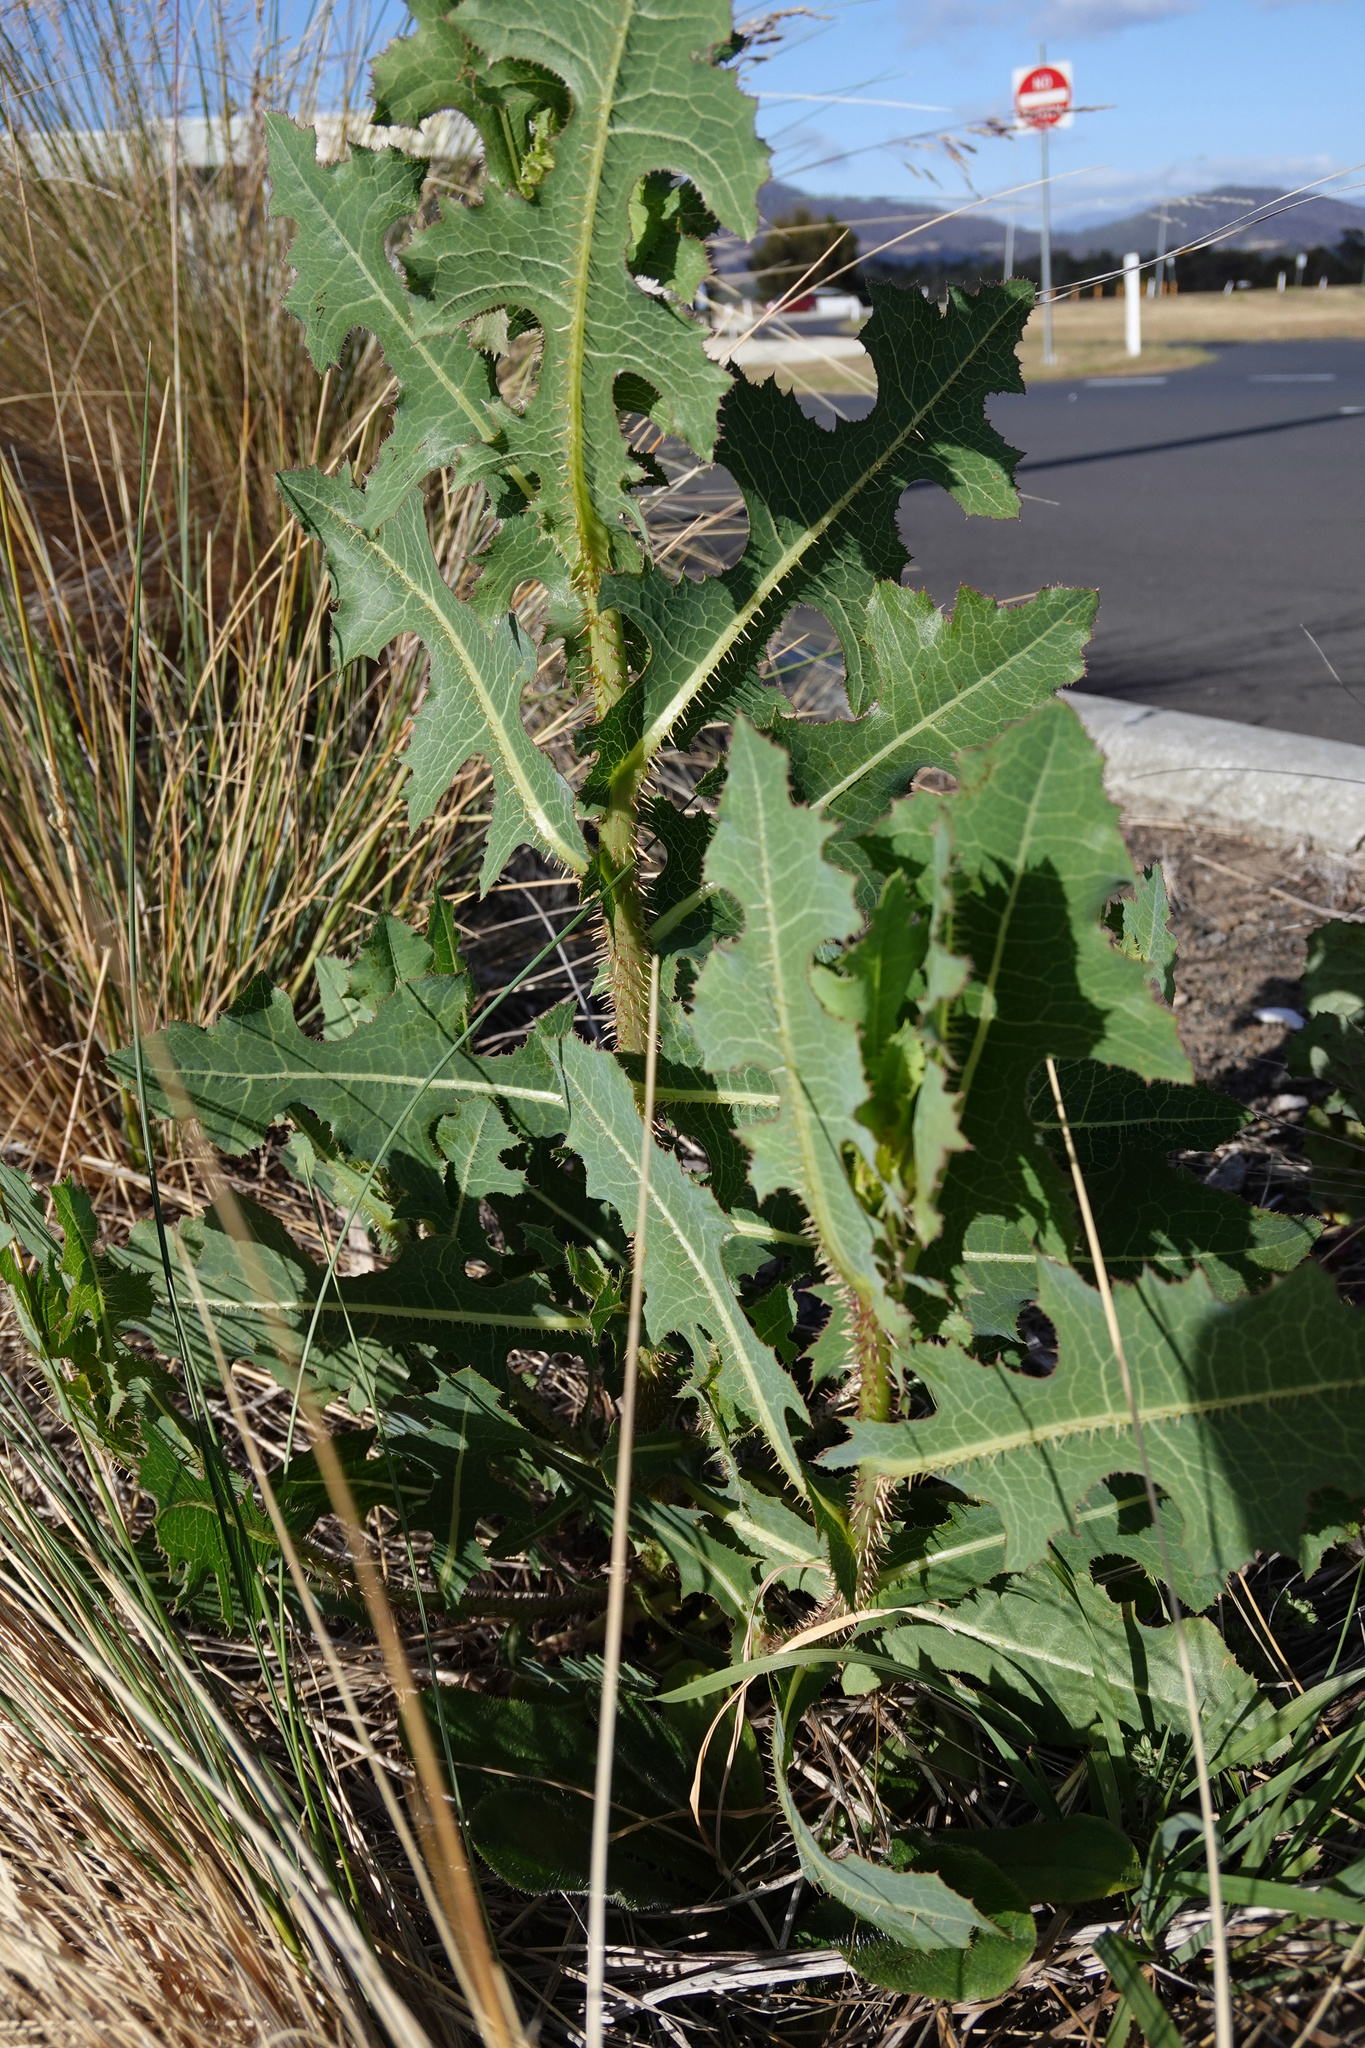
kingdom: Plantae
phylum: Tracheophyta
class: Magnoliopsida
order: Asterales
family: Asteraceae
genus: Lactuca
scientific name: Lactuca serriola
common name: Prickly lettuce
